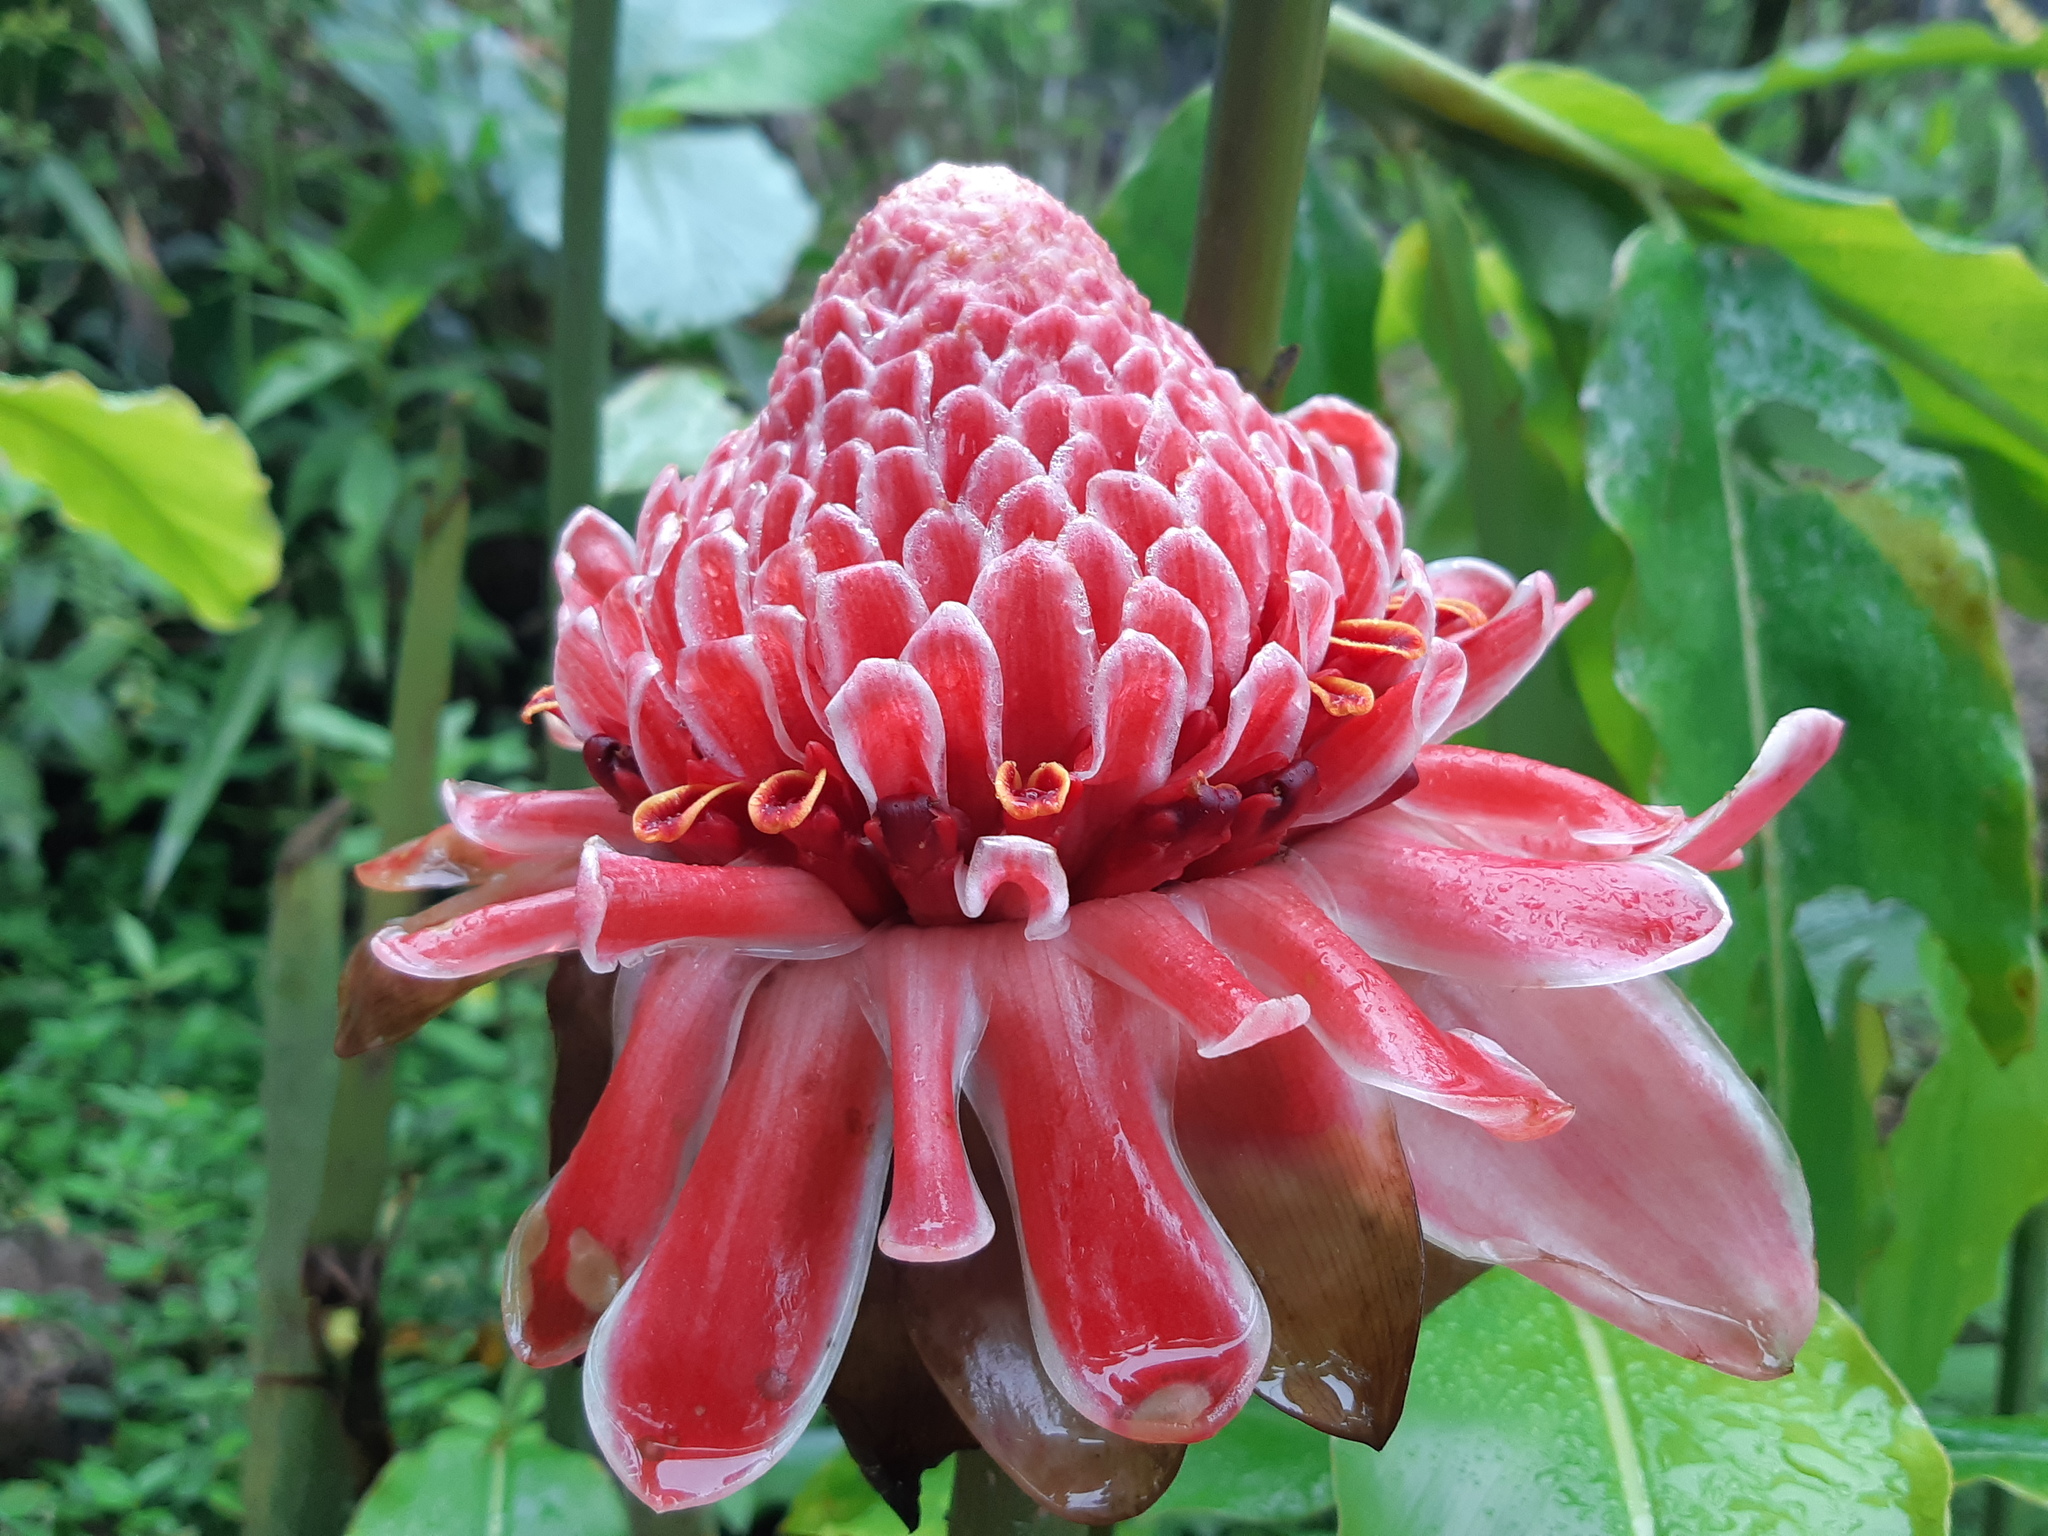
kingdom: Plantae
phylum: Tracheophyta
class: Liliopsida
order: Zingiberales
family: Zingiberaceae
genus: Etlingera
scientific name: Etlingera elatior
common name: Philippine waxflower
